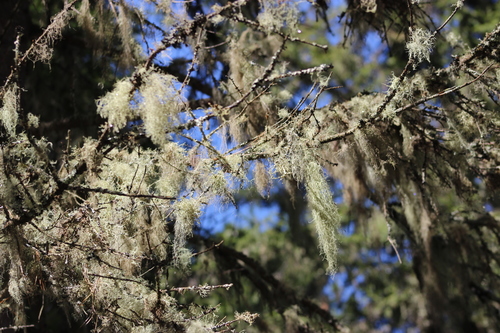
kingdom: Fungi
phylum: Ascomycota
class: Lecanoromycetes
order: Lecanorales
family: Parmeliaceae
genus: Usnea
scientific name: Usnea
